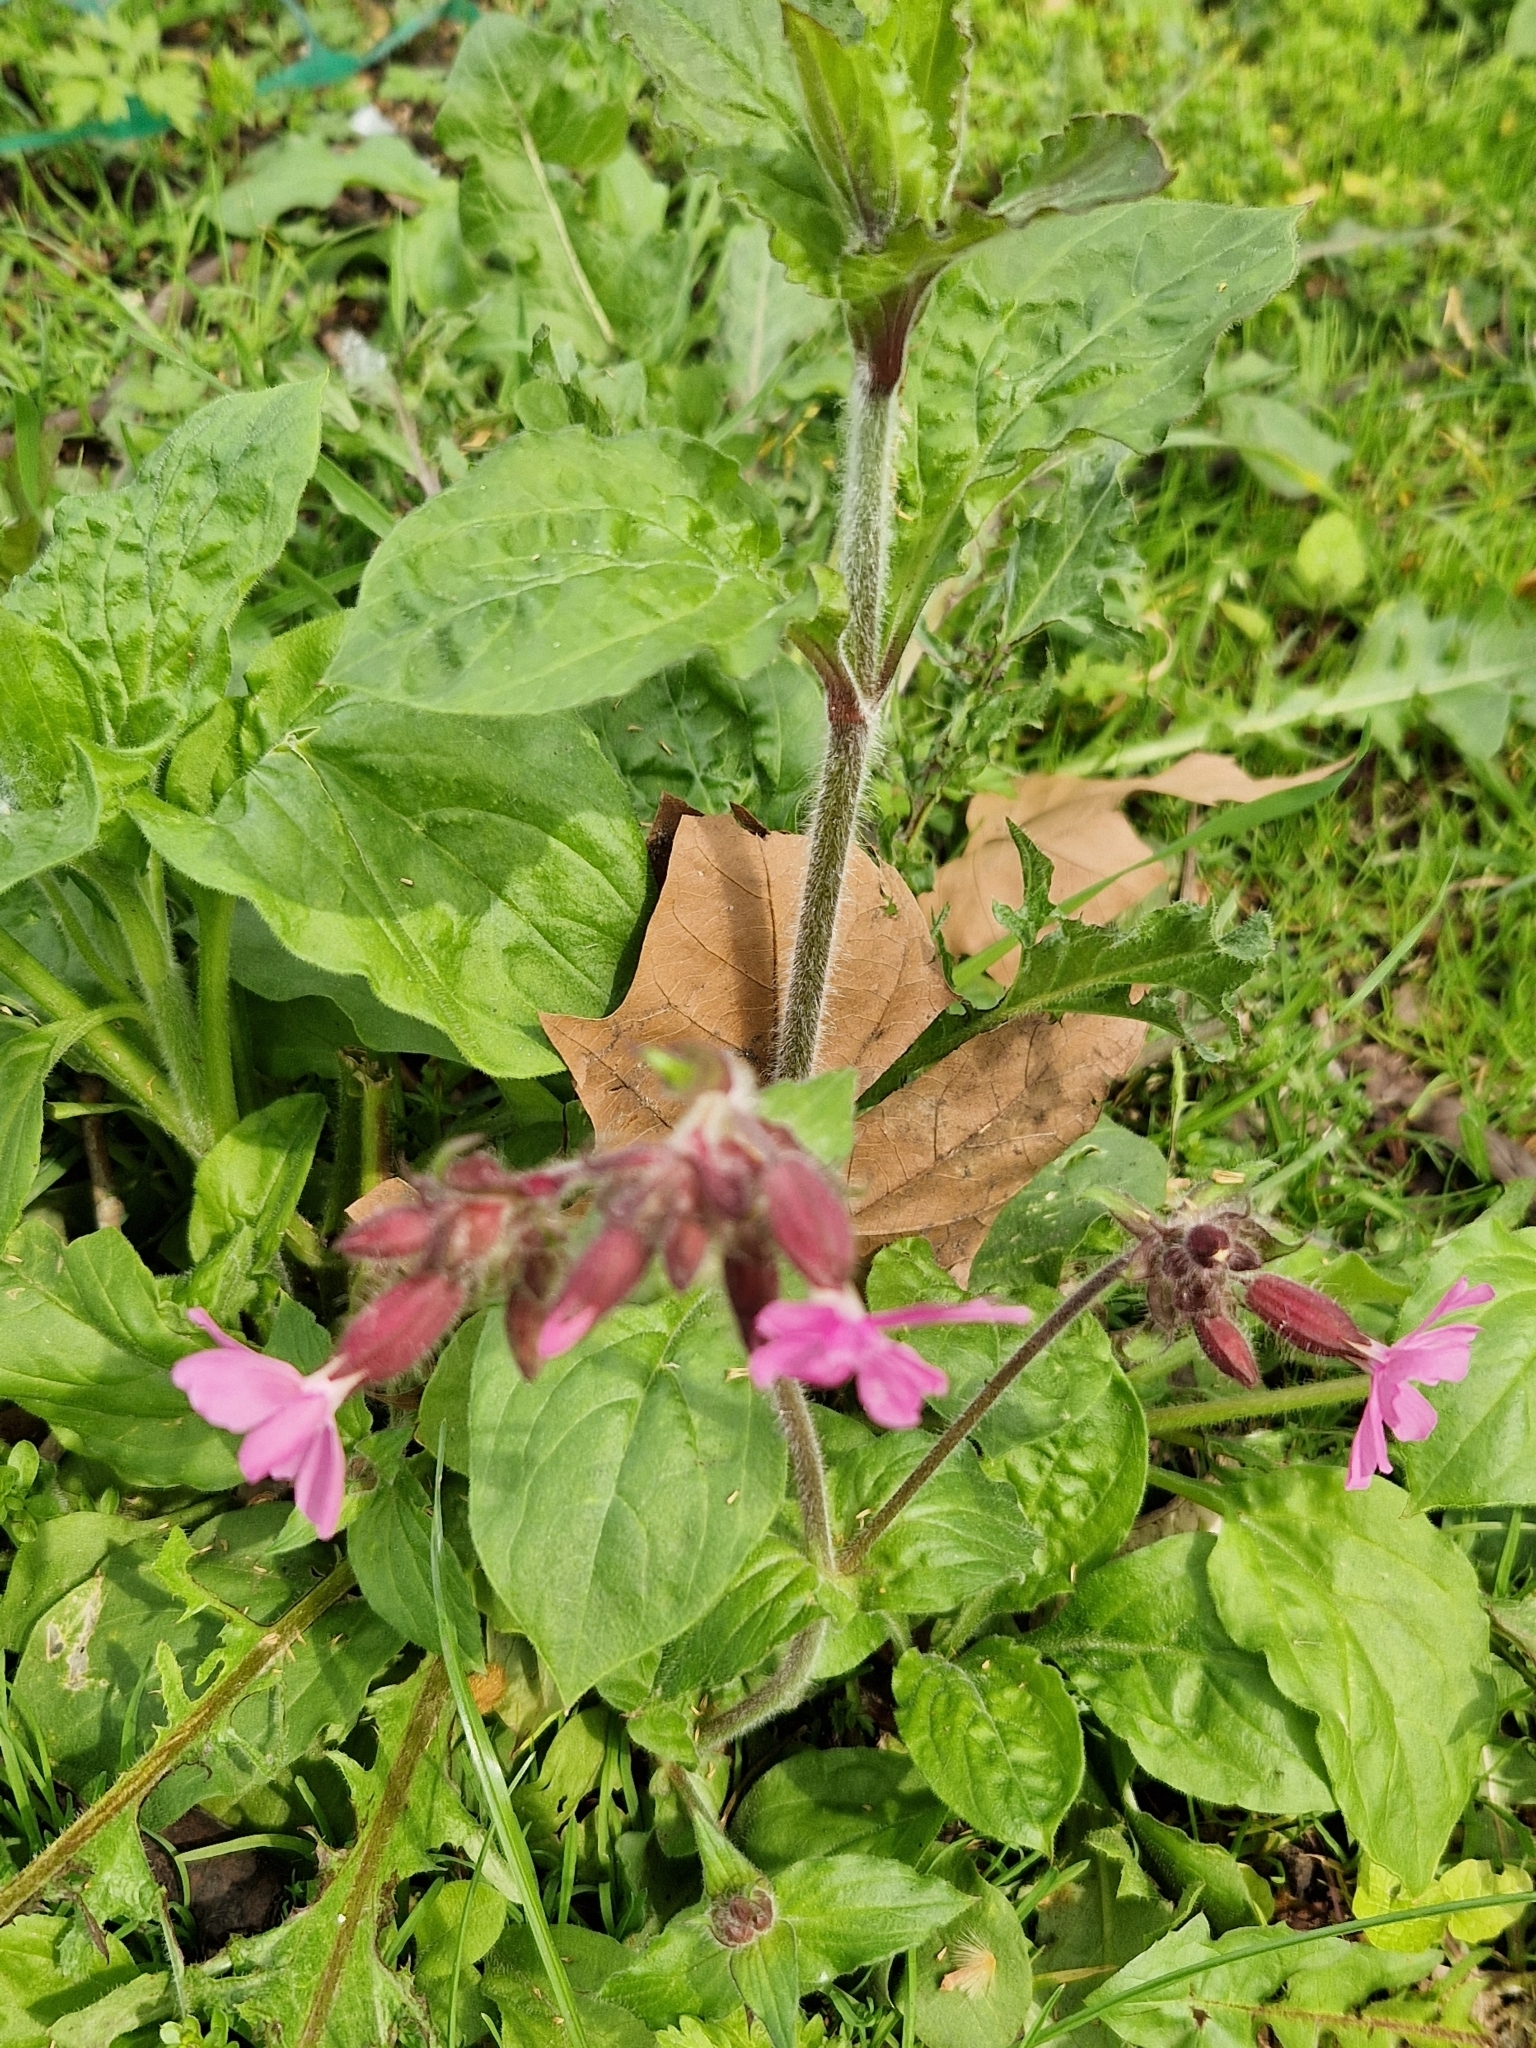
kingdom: Plantae
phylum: Tracheophyta
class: Magnoliopsida
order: Caryophyllales
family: Caryophyllaceae
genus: Silene
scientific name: Silene dioica
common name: Red campion
